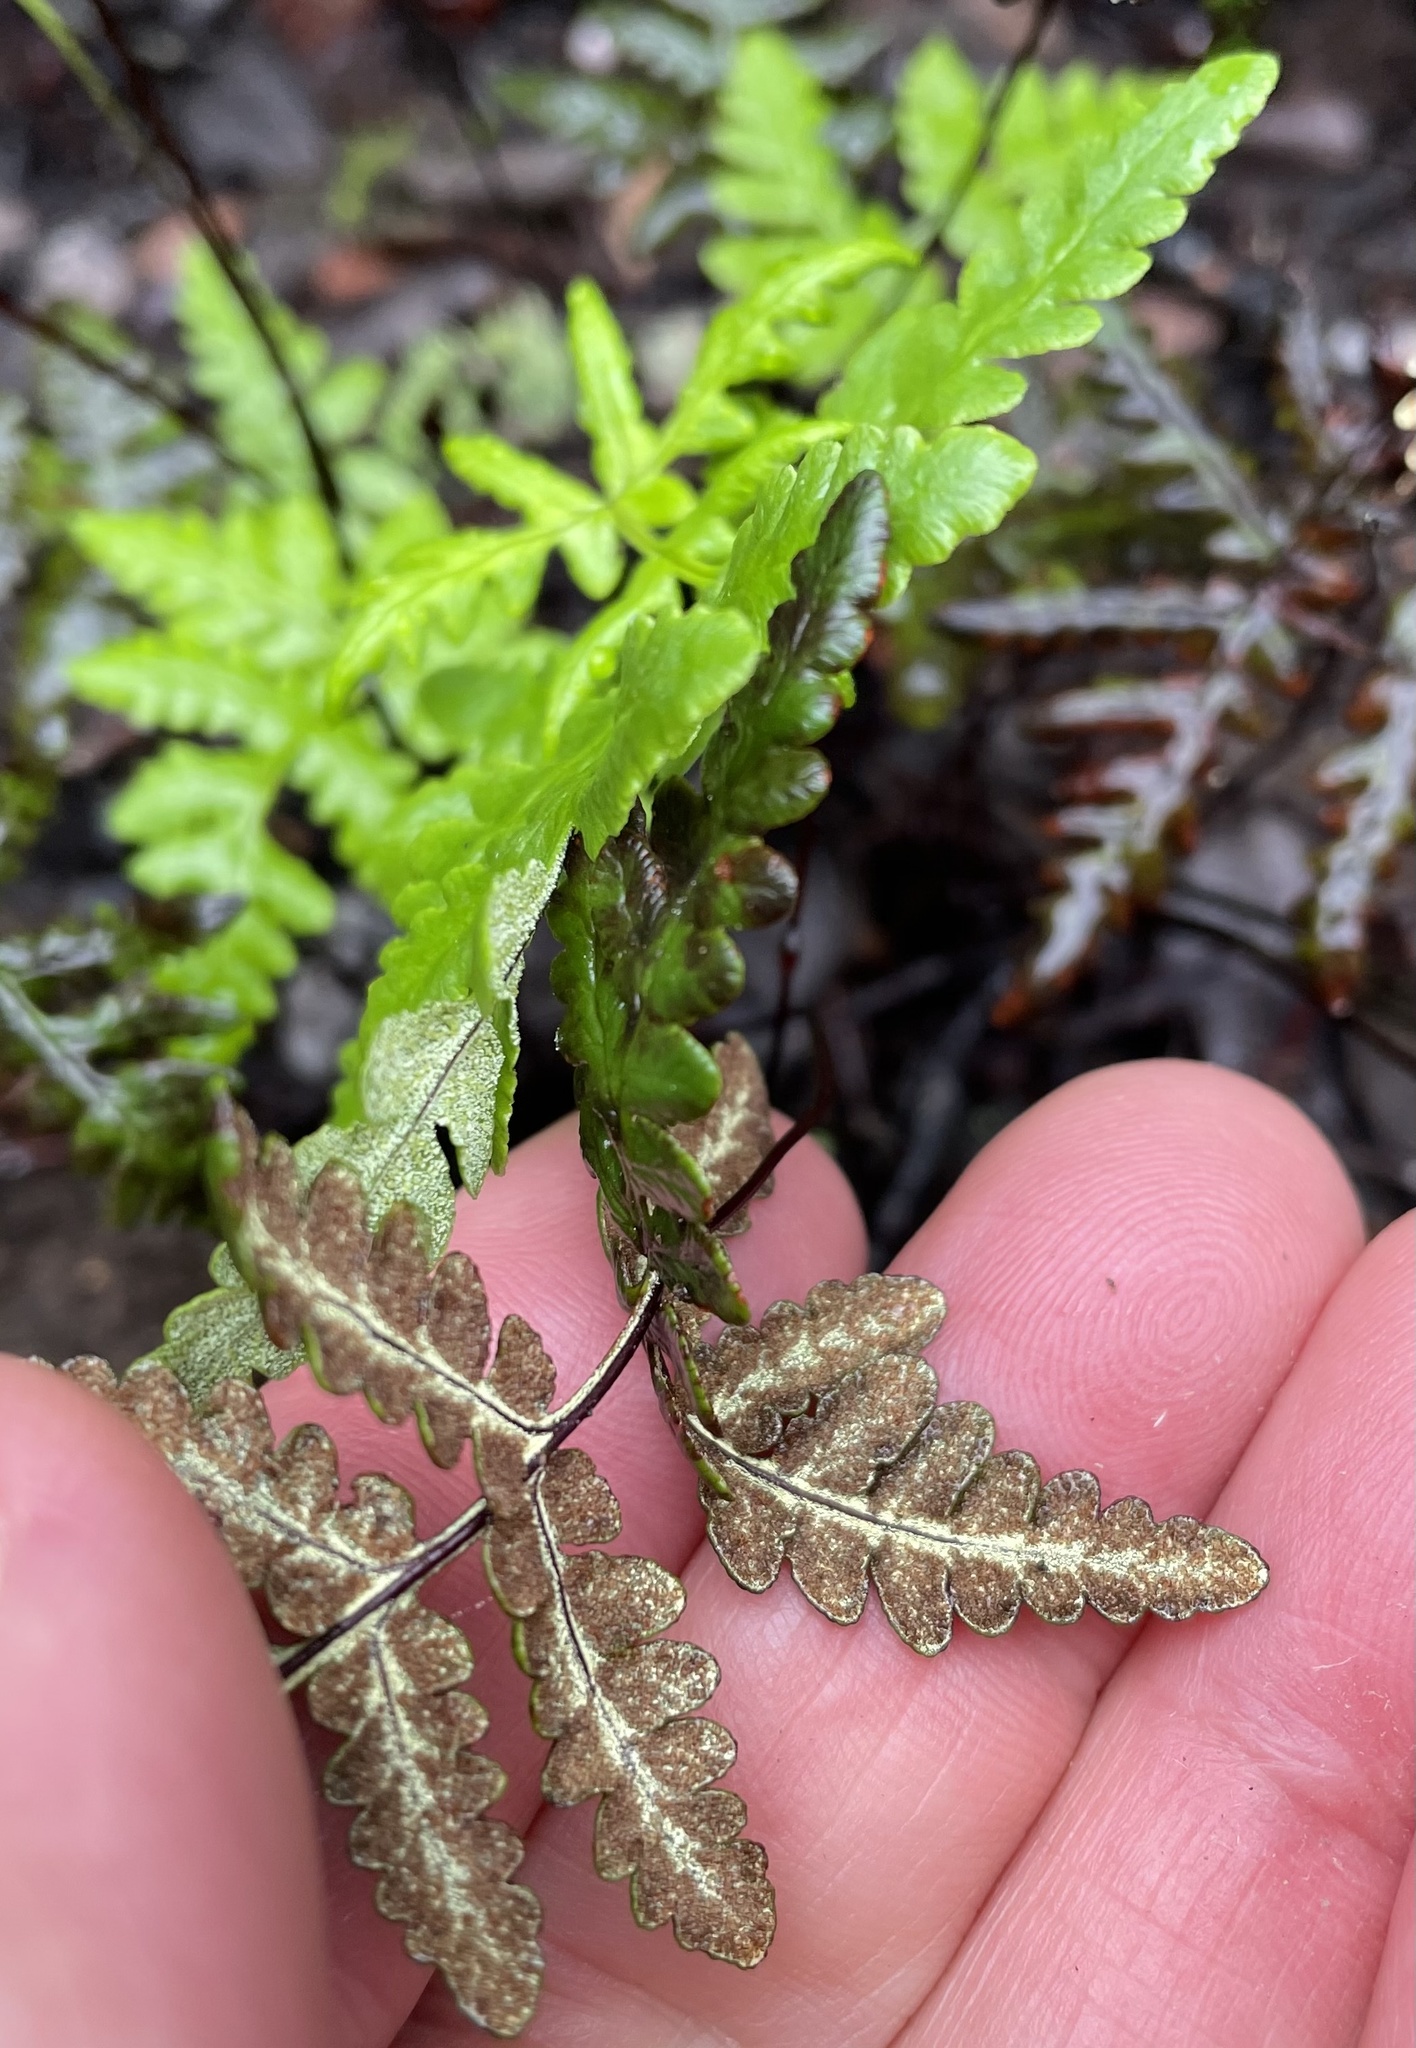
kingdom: Plantae
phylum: Tracheophyta
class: Polypodiopsida
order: Polypodiales
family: Pteridaceae
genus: Pentagramma
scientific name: Pentagramma triangularis
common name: Gold fern
